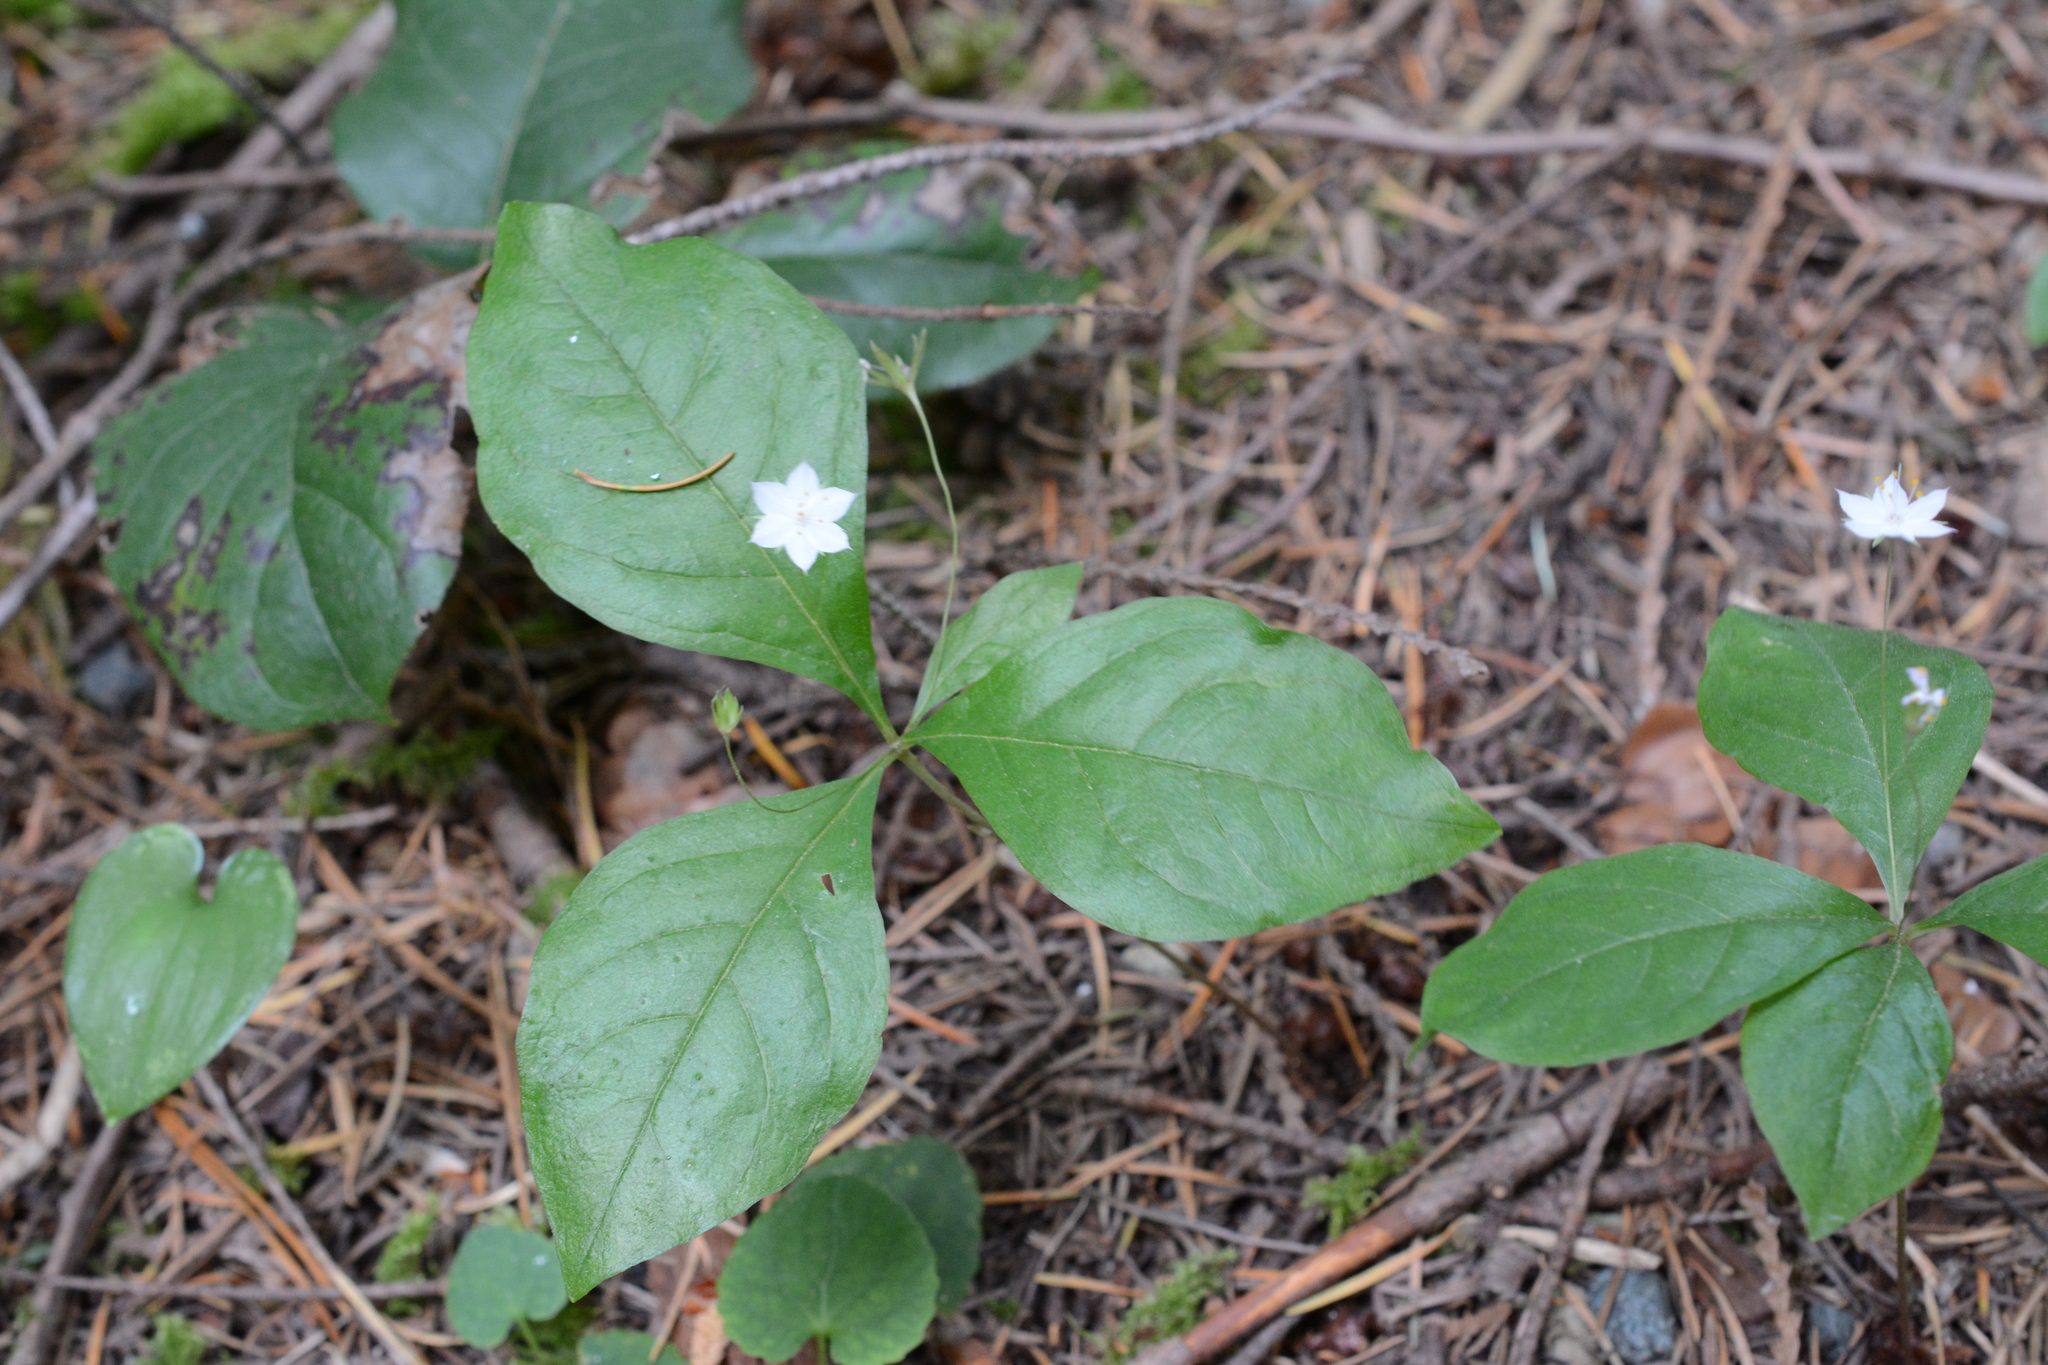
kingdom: Plantae
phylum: Tracheophyta
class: Magnoliopsida
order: Ericales
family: Primulaceae
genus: Lysimachia
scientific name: Lysimachia latifolia
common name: Pacific starflower
